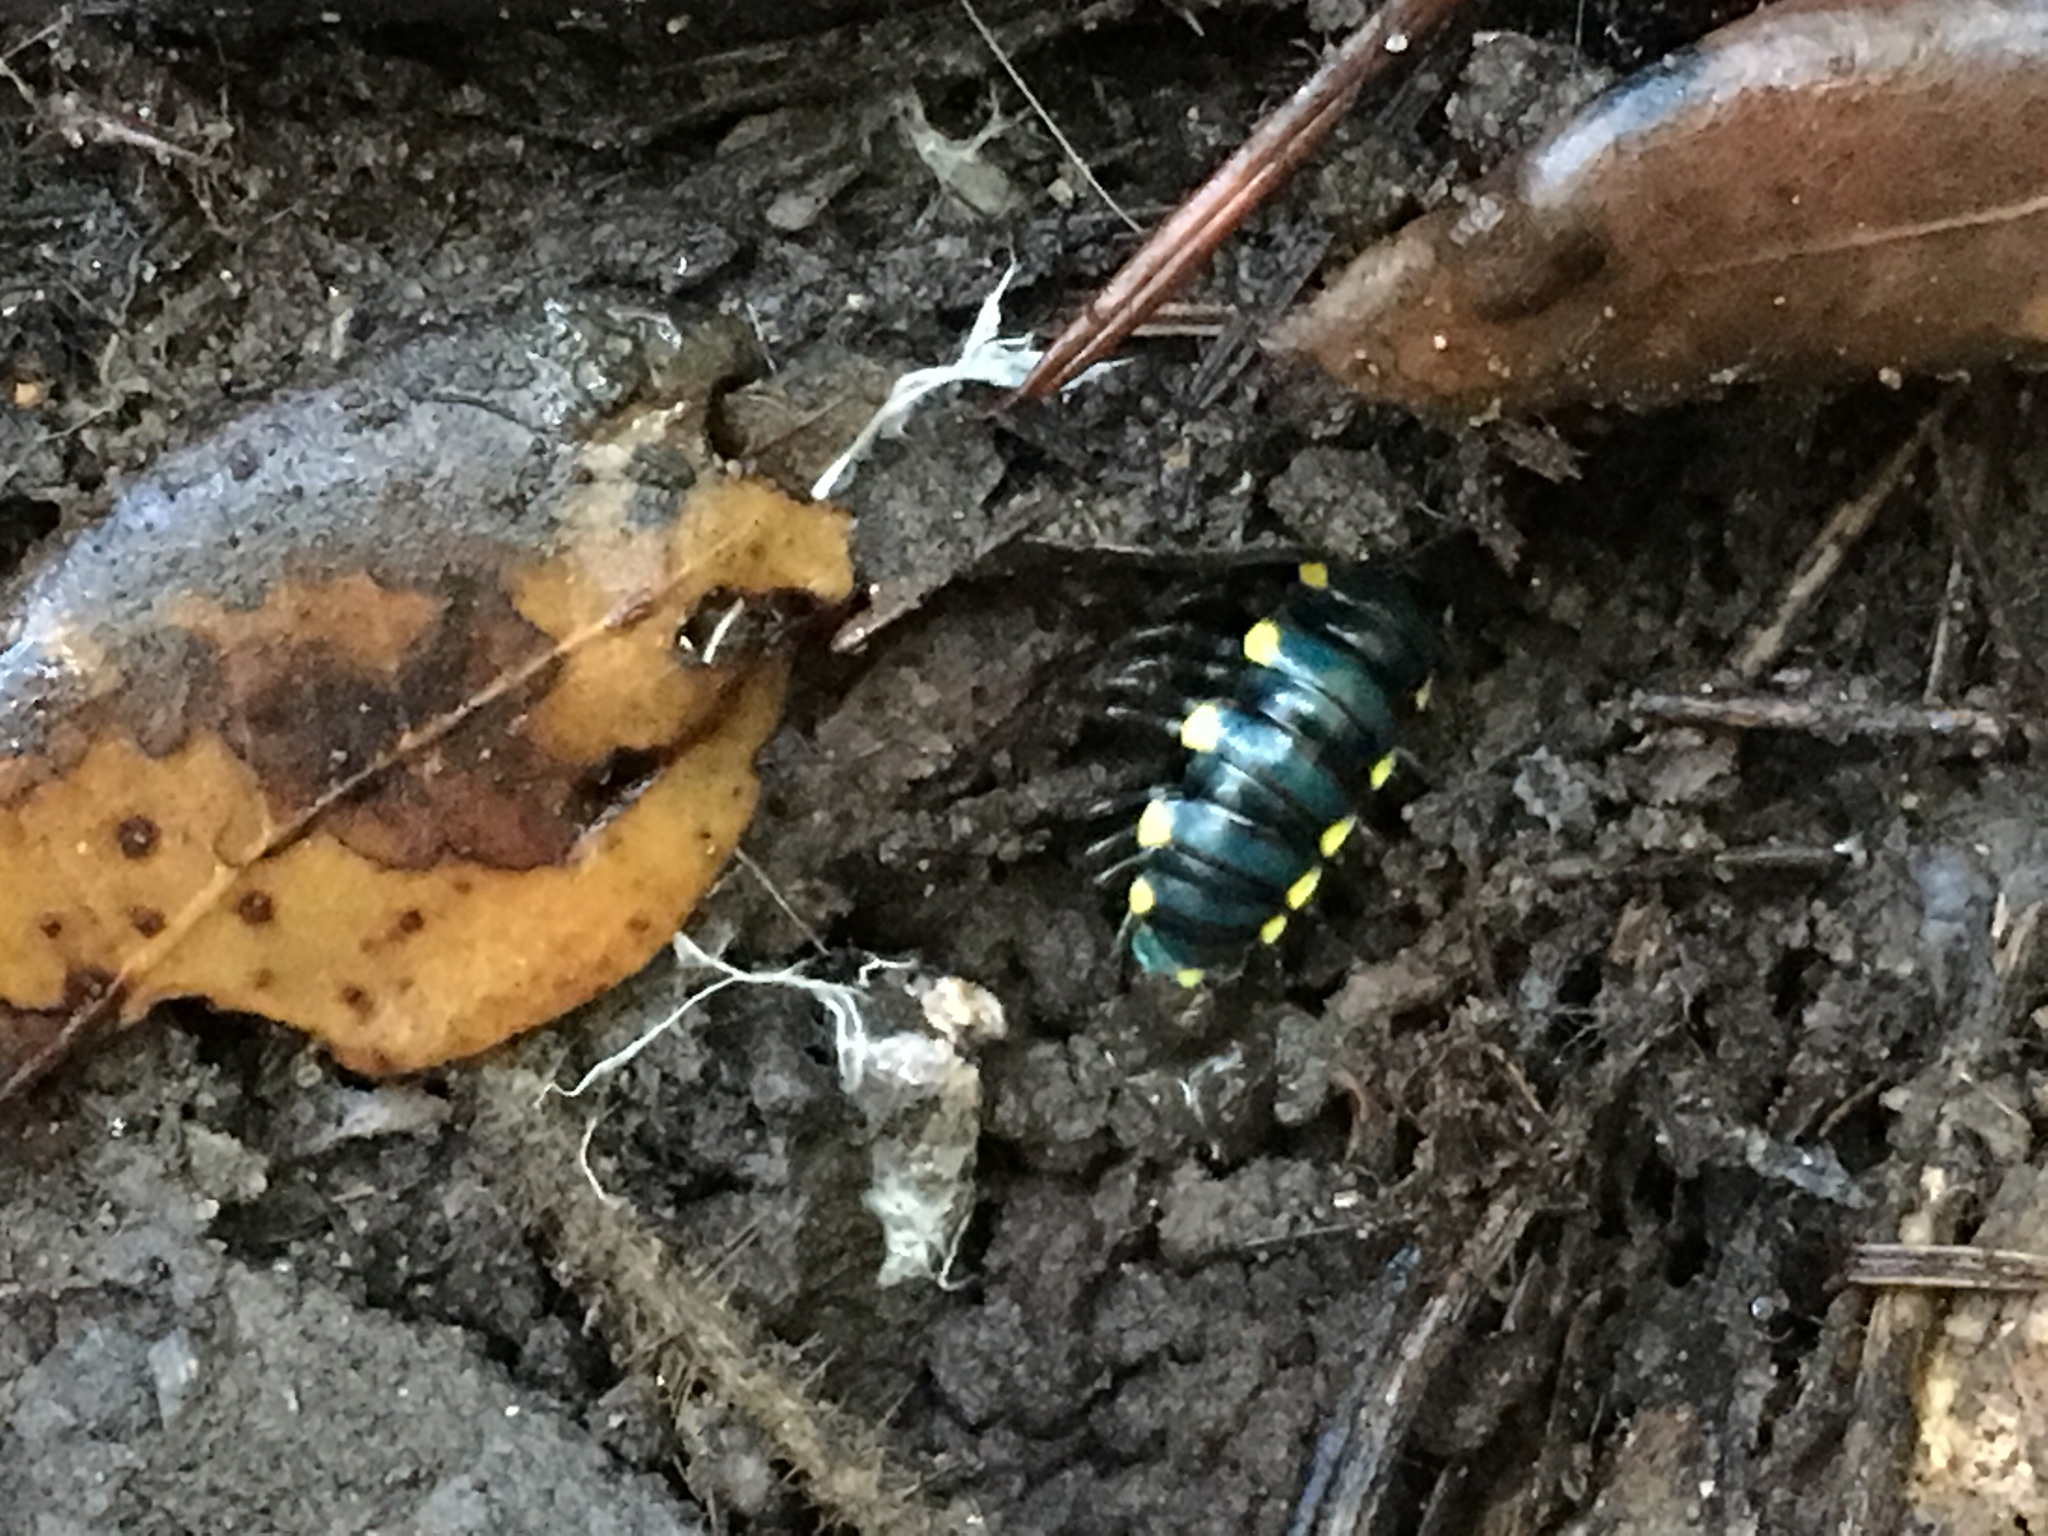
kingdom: Animalia
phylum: Arthropoda
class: Diplopoda
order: Polydesmida
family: Xystodesmidae
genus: Harpaphe
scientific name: Harpaphe haydeniana
